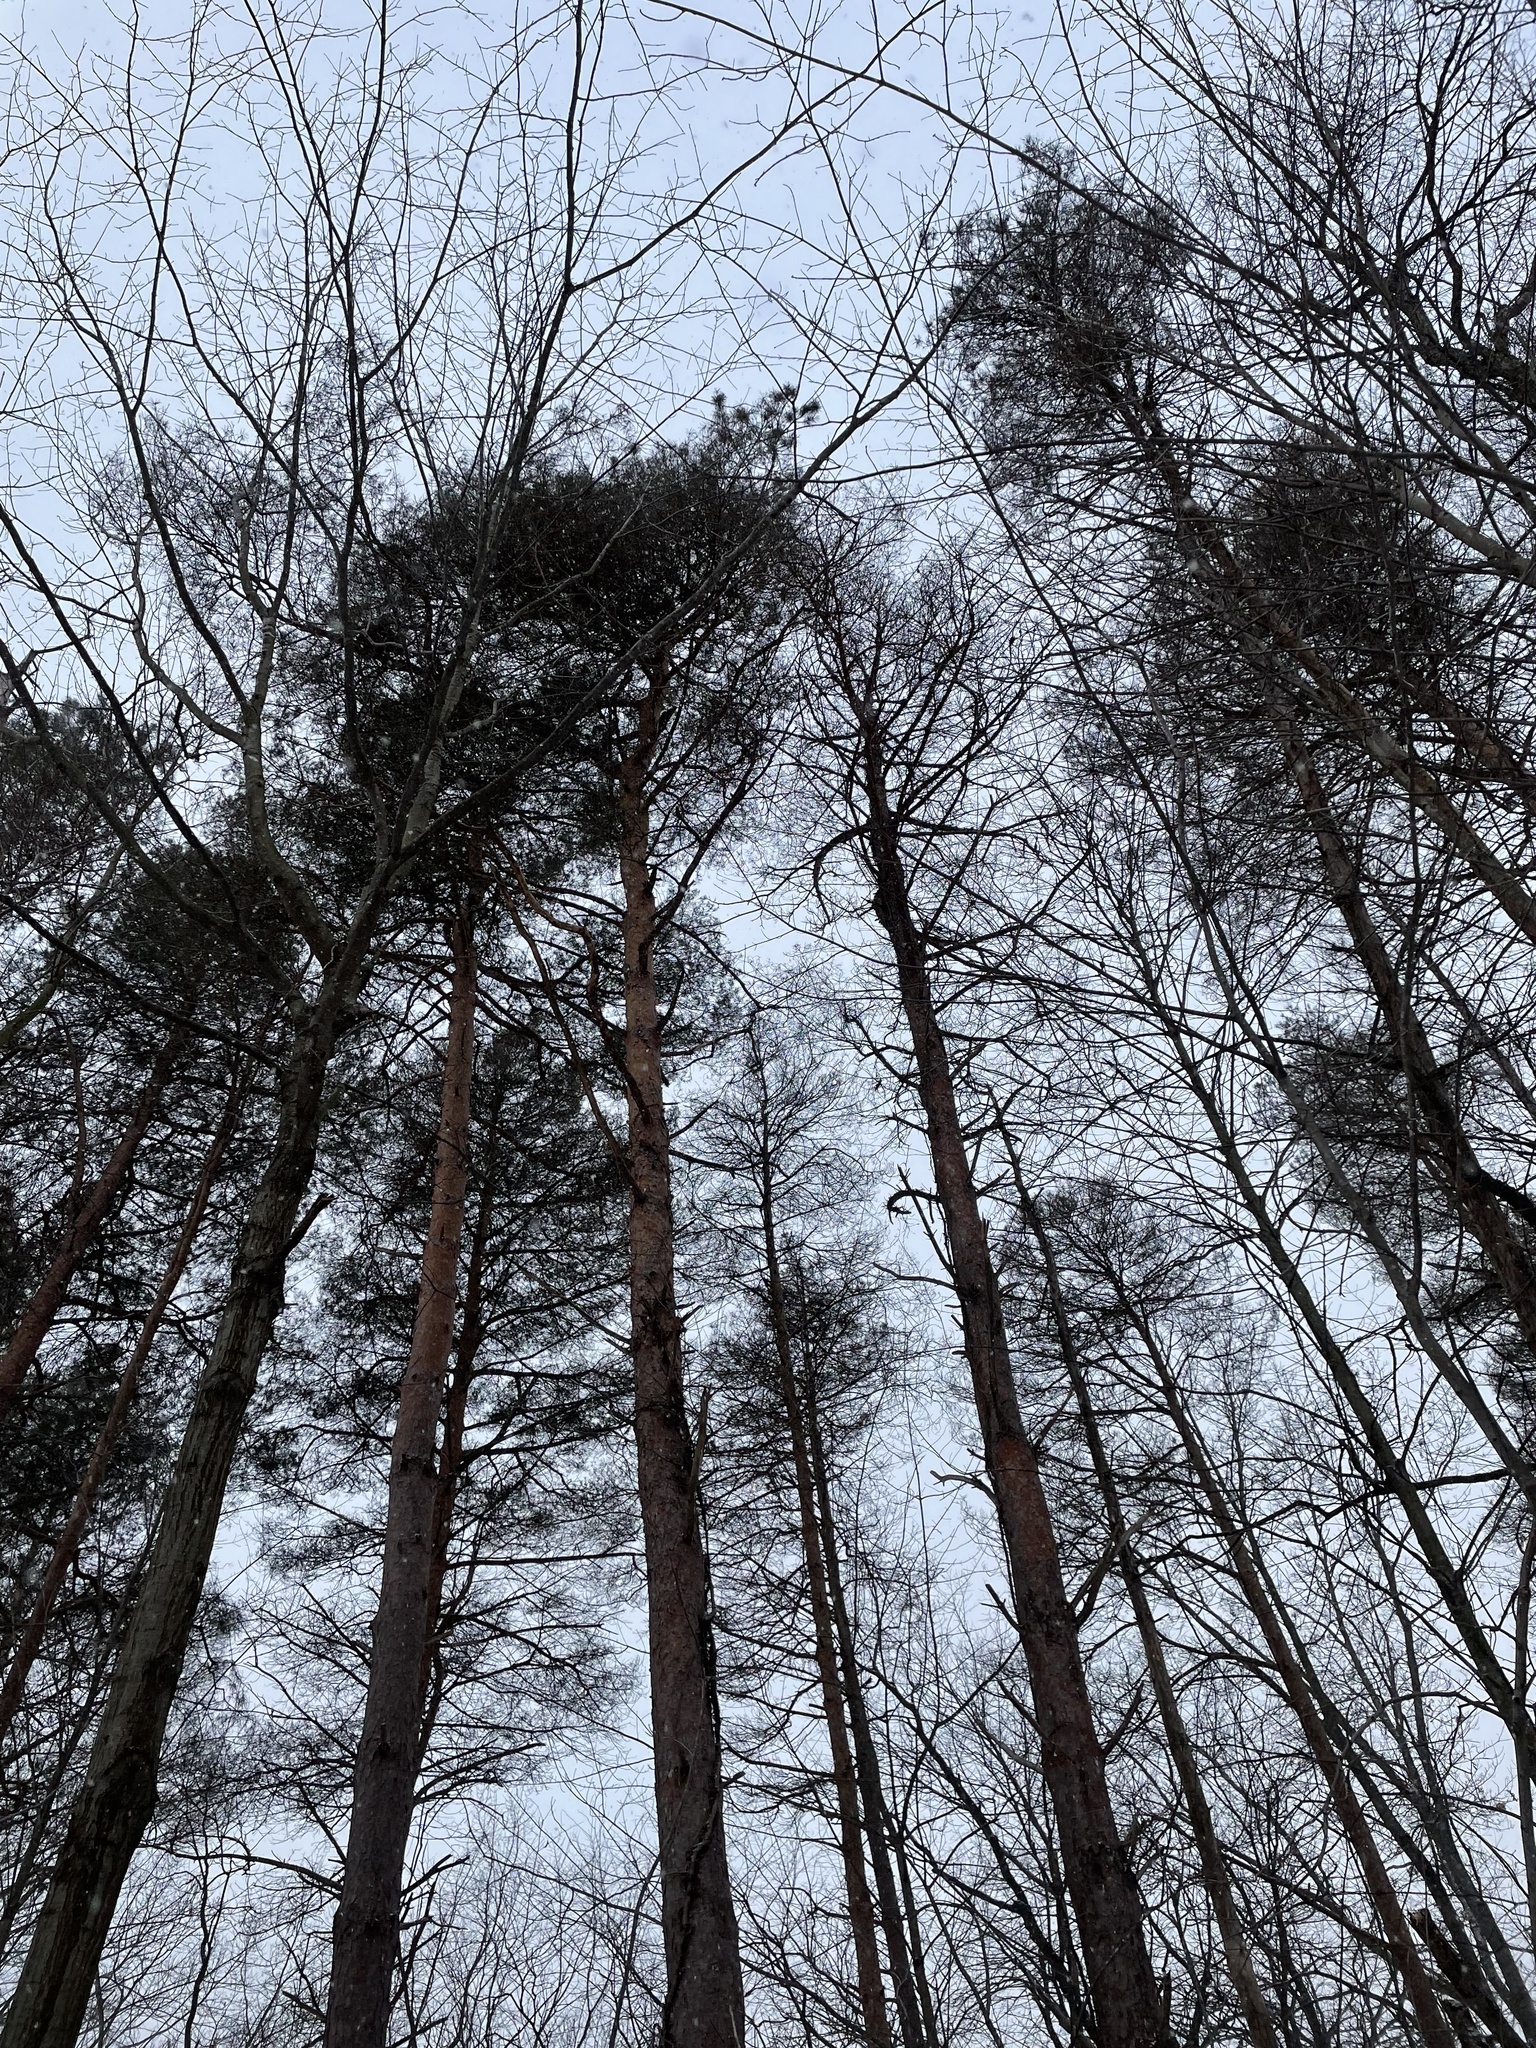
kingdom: Plantae
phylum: Tracheophyta
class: Pinopsida
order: Pinales
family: Pinaceae
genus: Pinus
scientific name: Pinus sylvestris
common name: Scots pine
